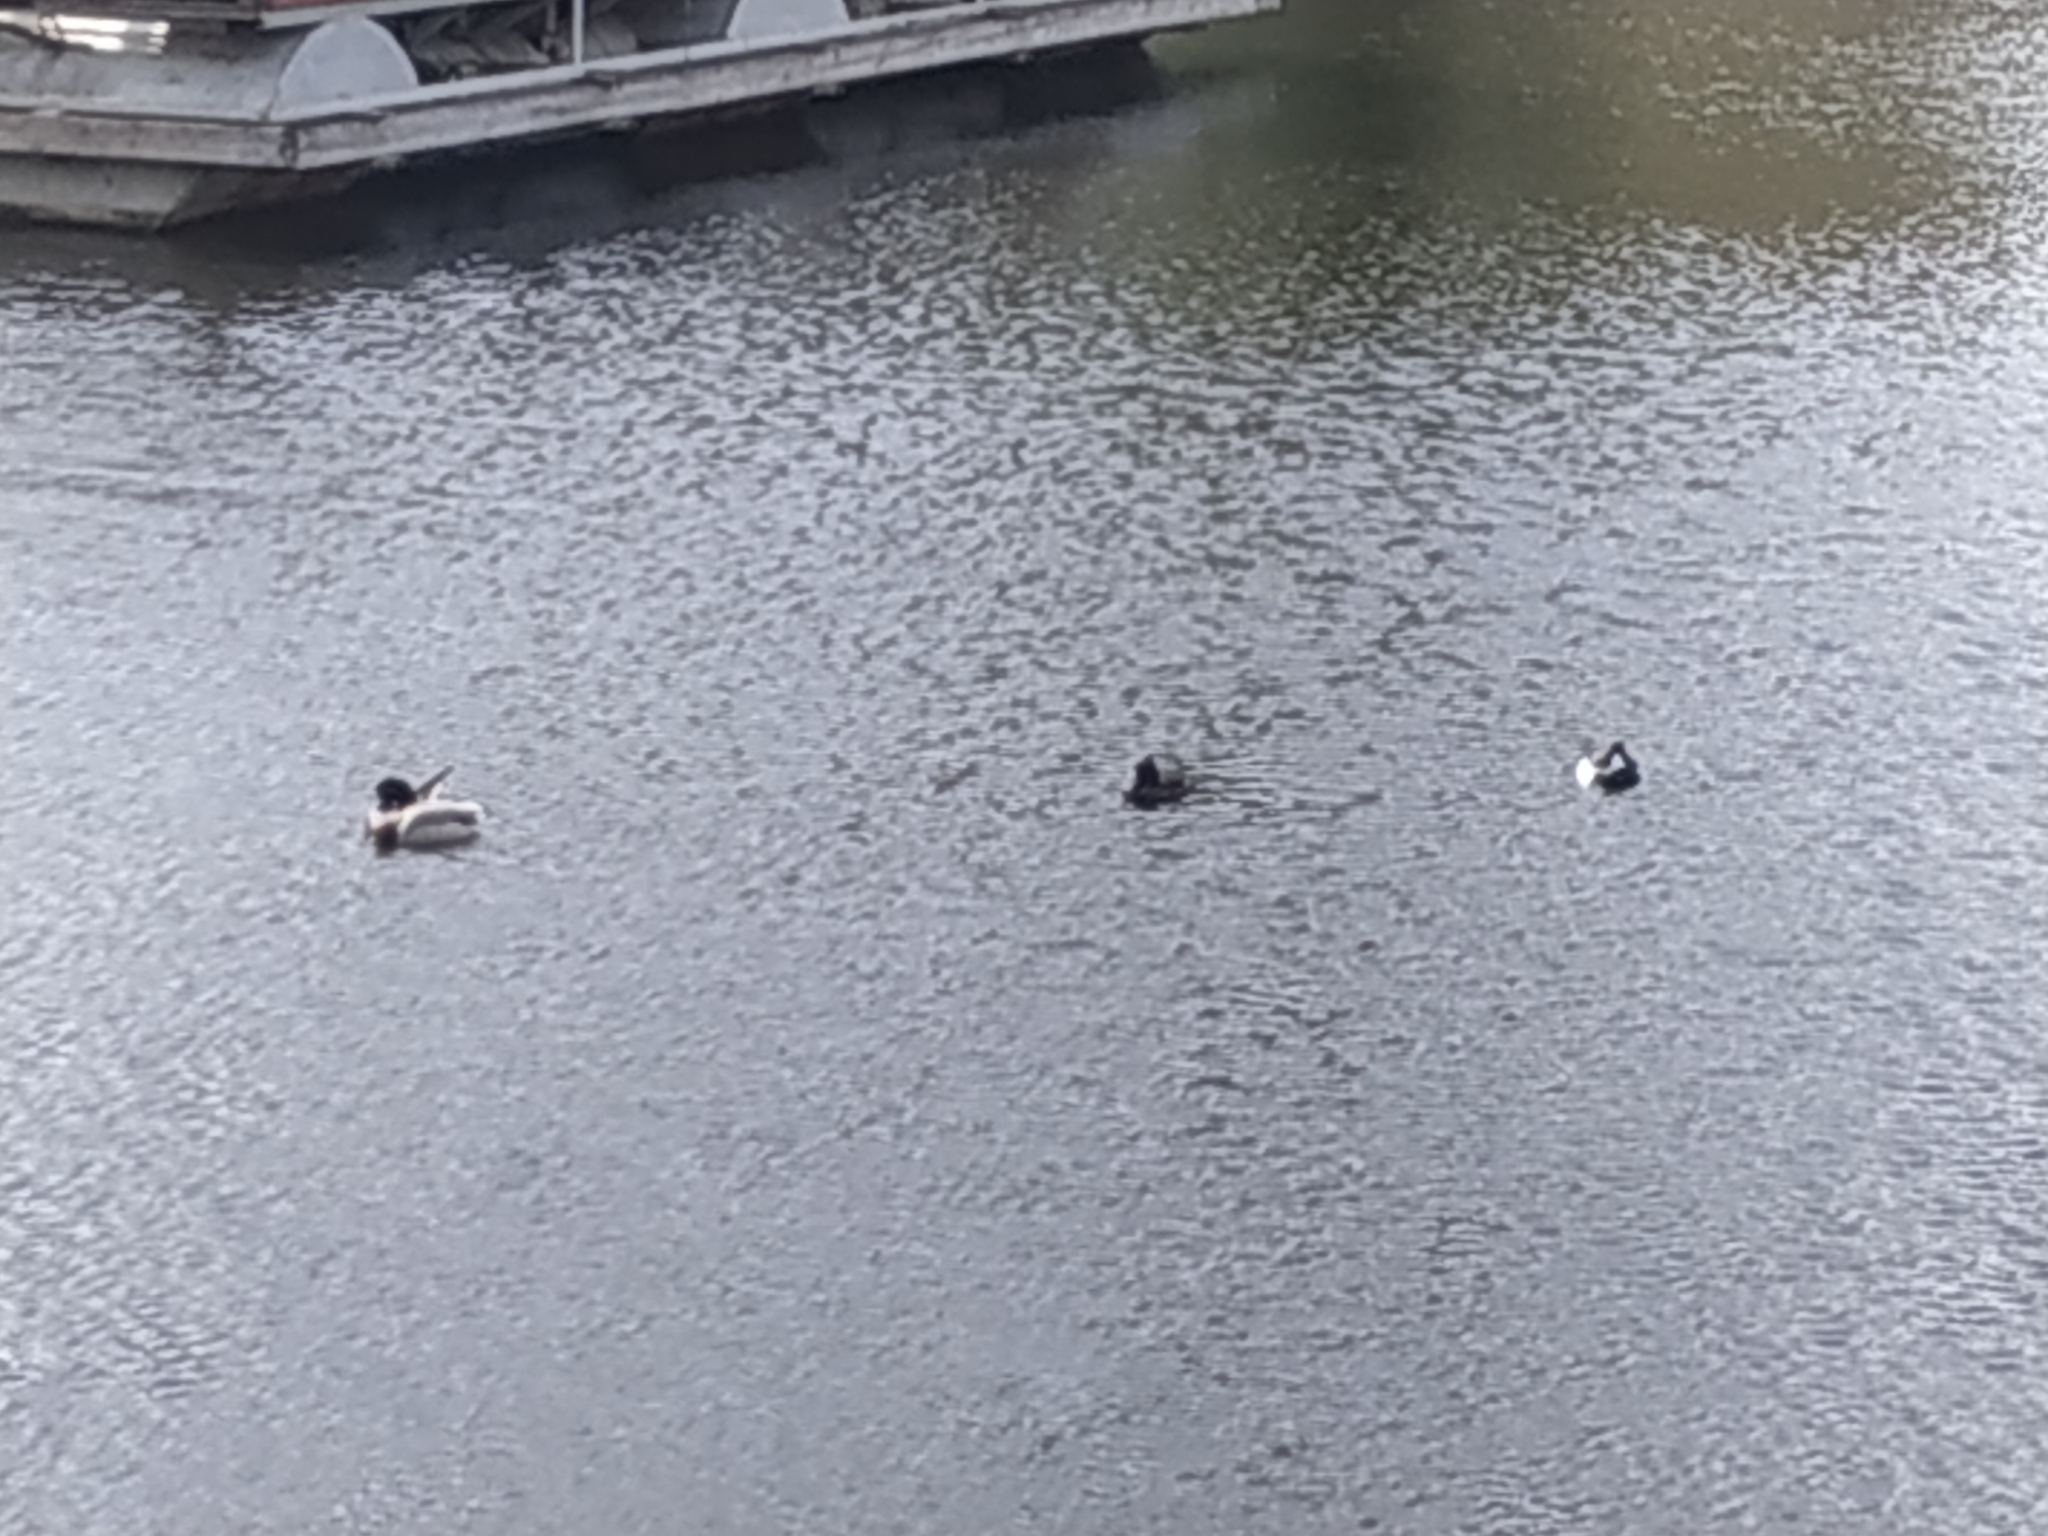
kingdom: Animalia
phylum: Chordata
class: Aves
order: Anseriformes
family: Anatidae
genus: Anas
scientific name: Anas platyrhynchos
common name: Mallard
